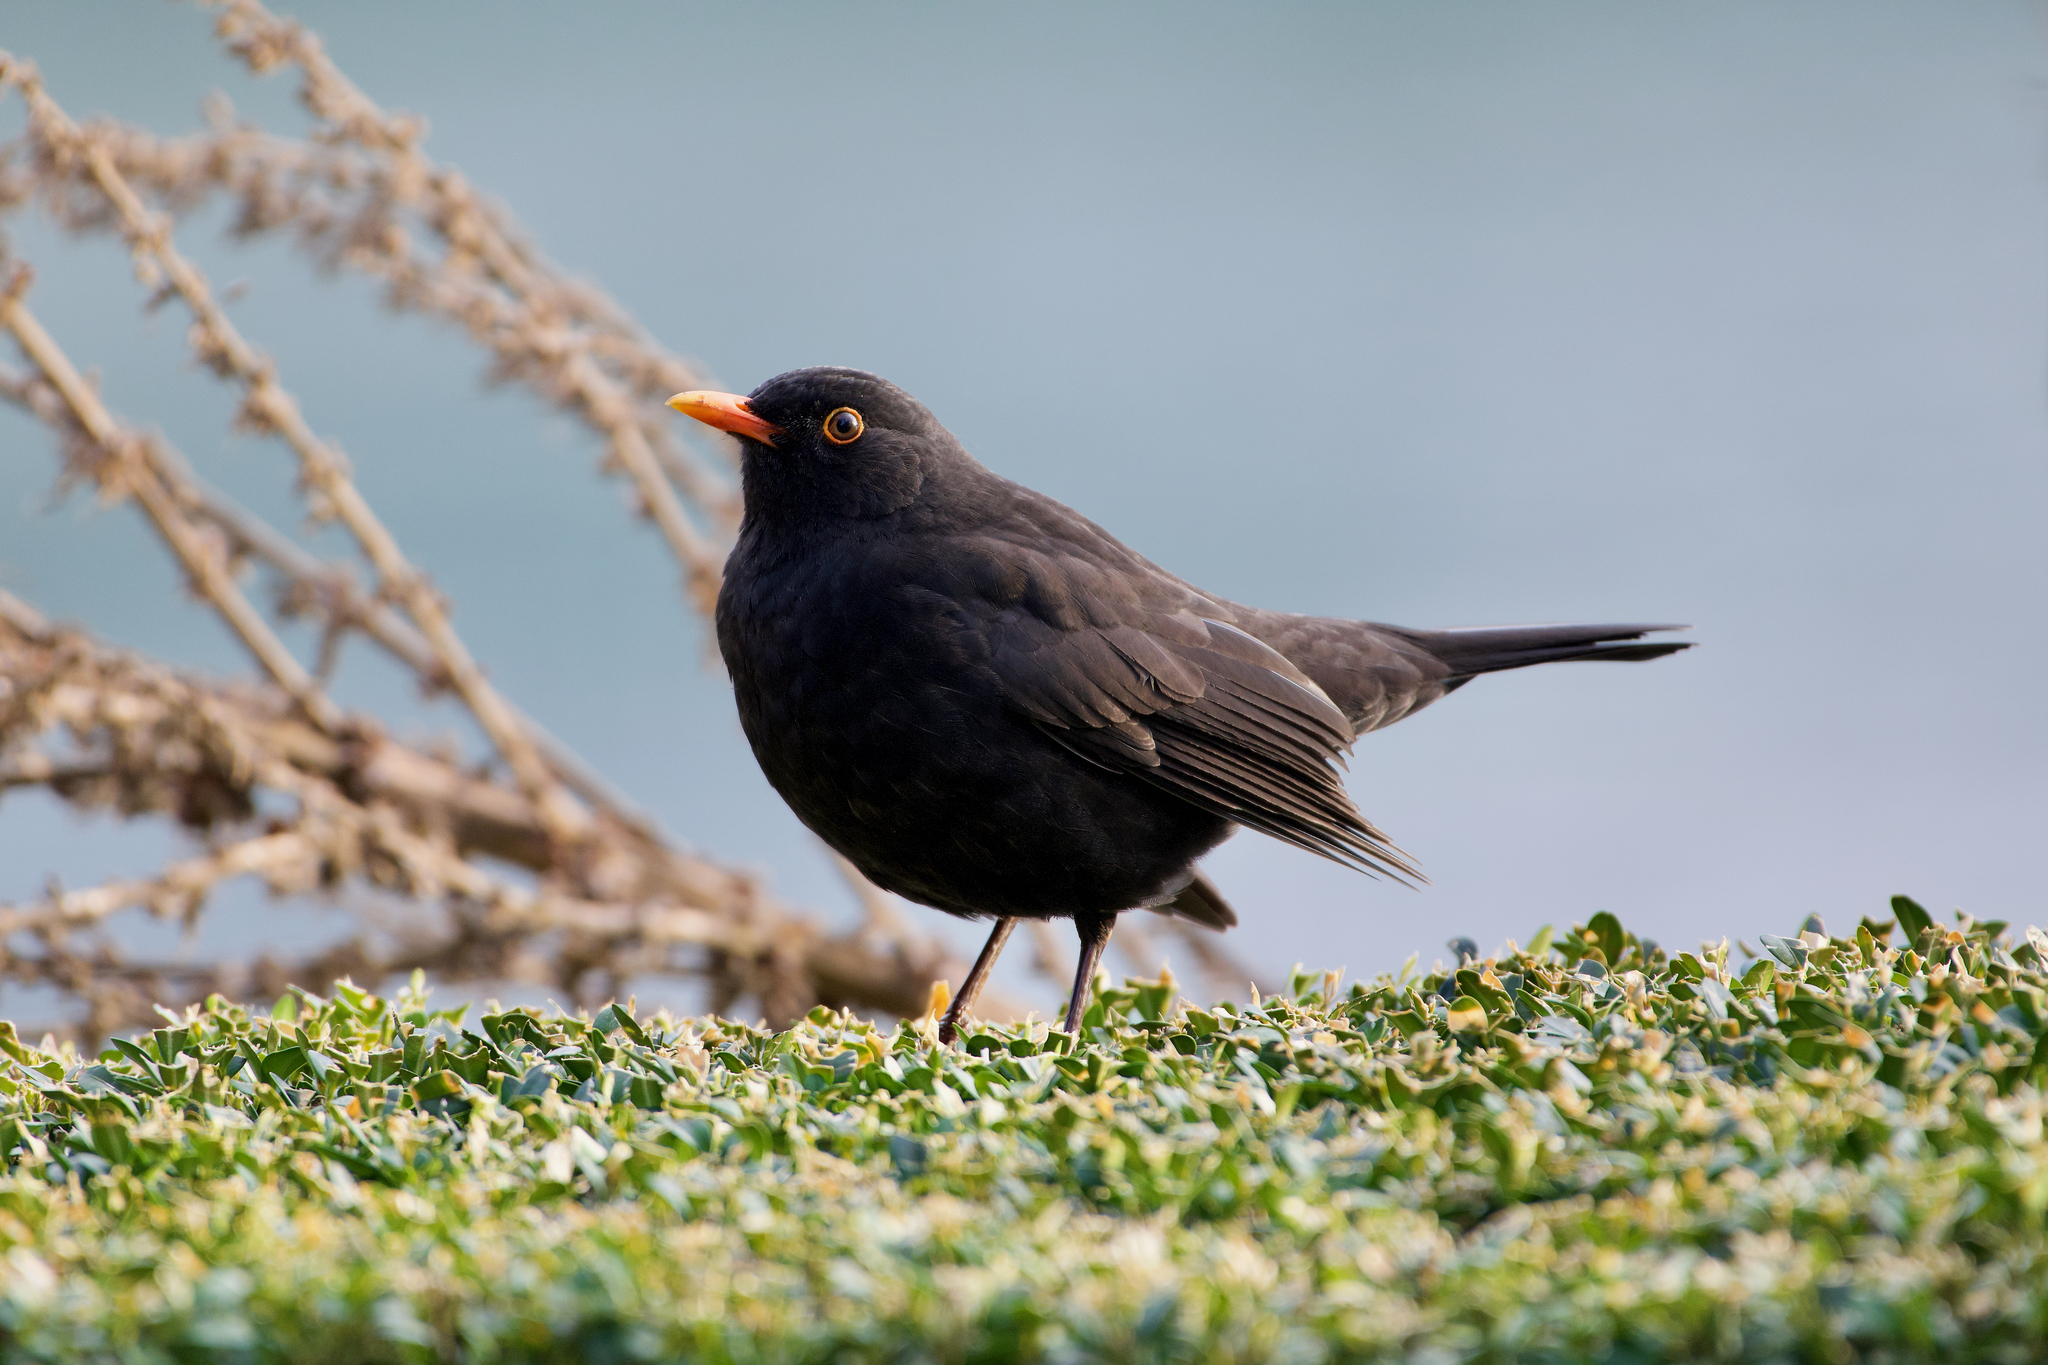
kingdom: Animalia
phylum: Chordata
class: Aves
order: Passeriformes
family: Turdidae
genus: Turdus
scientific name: Turdus merula
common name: Common blackbird
